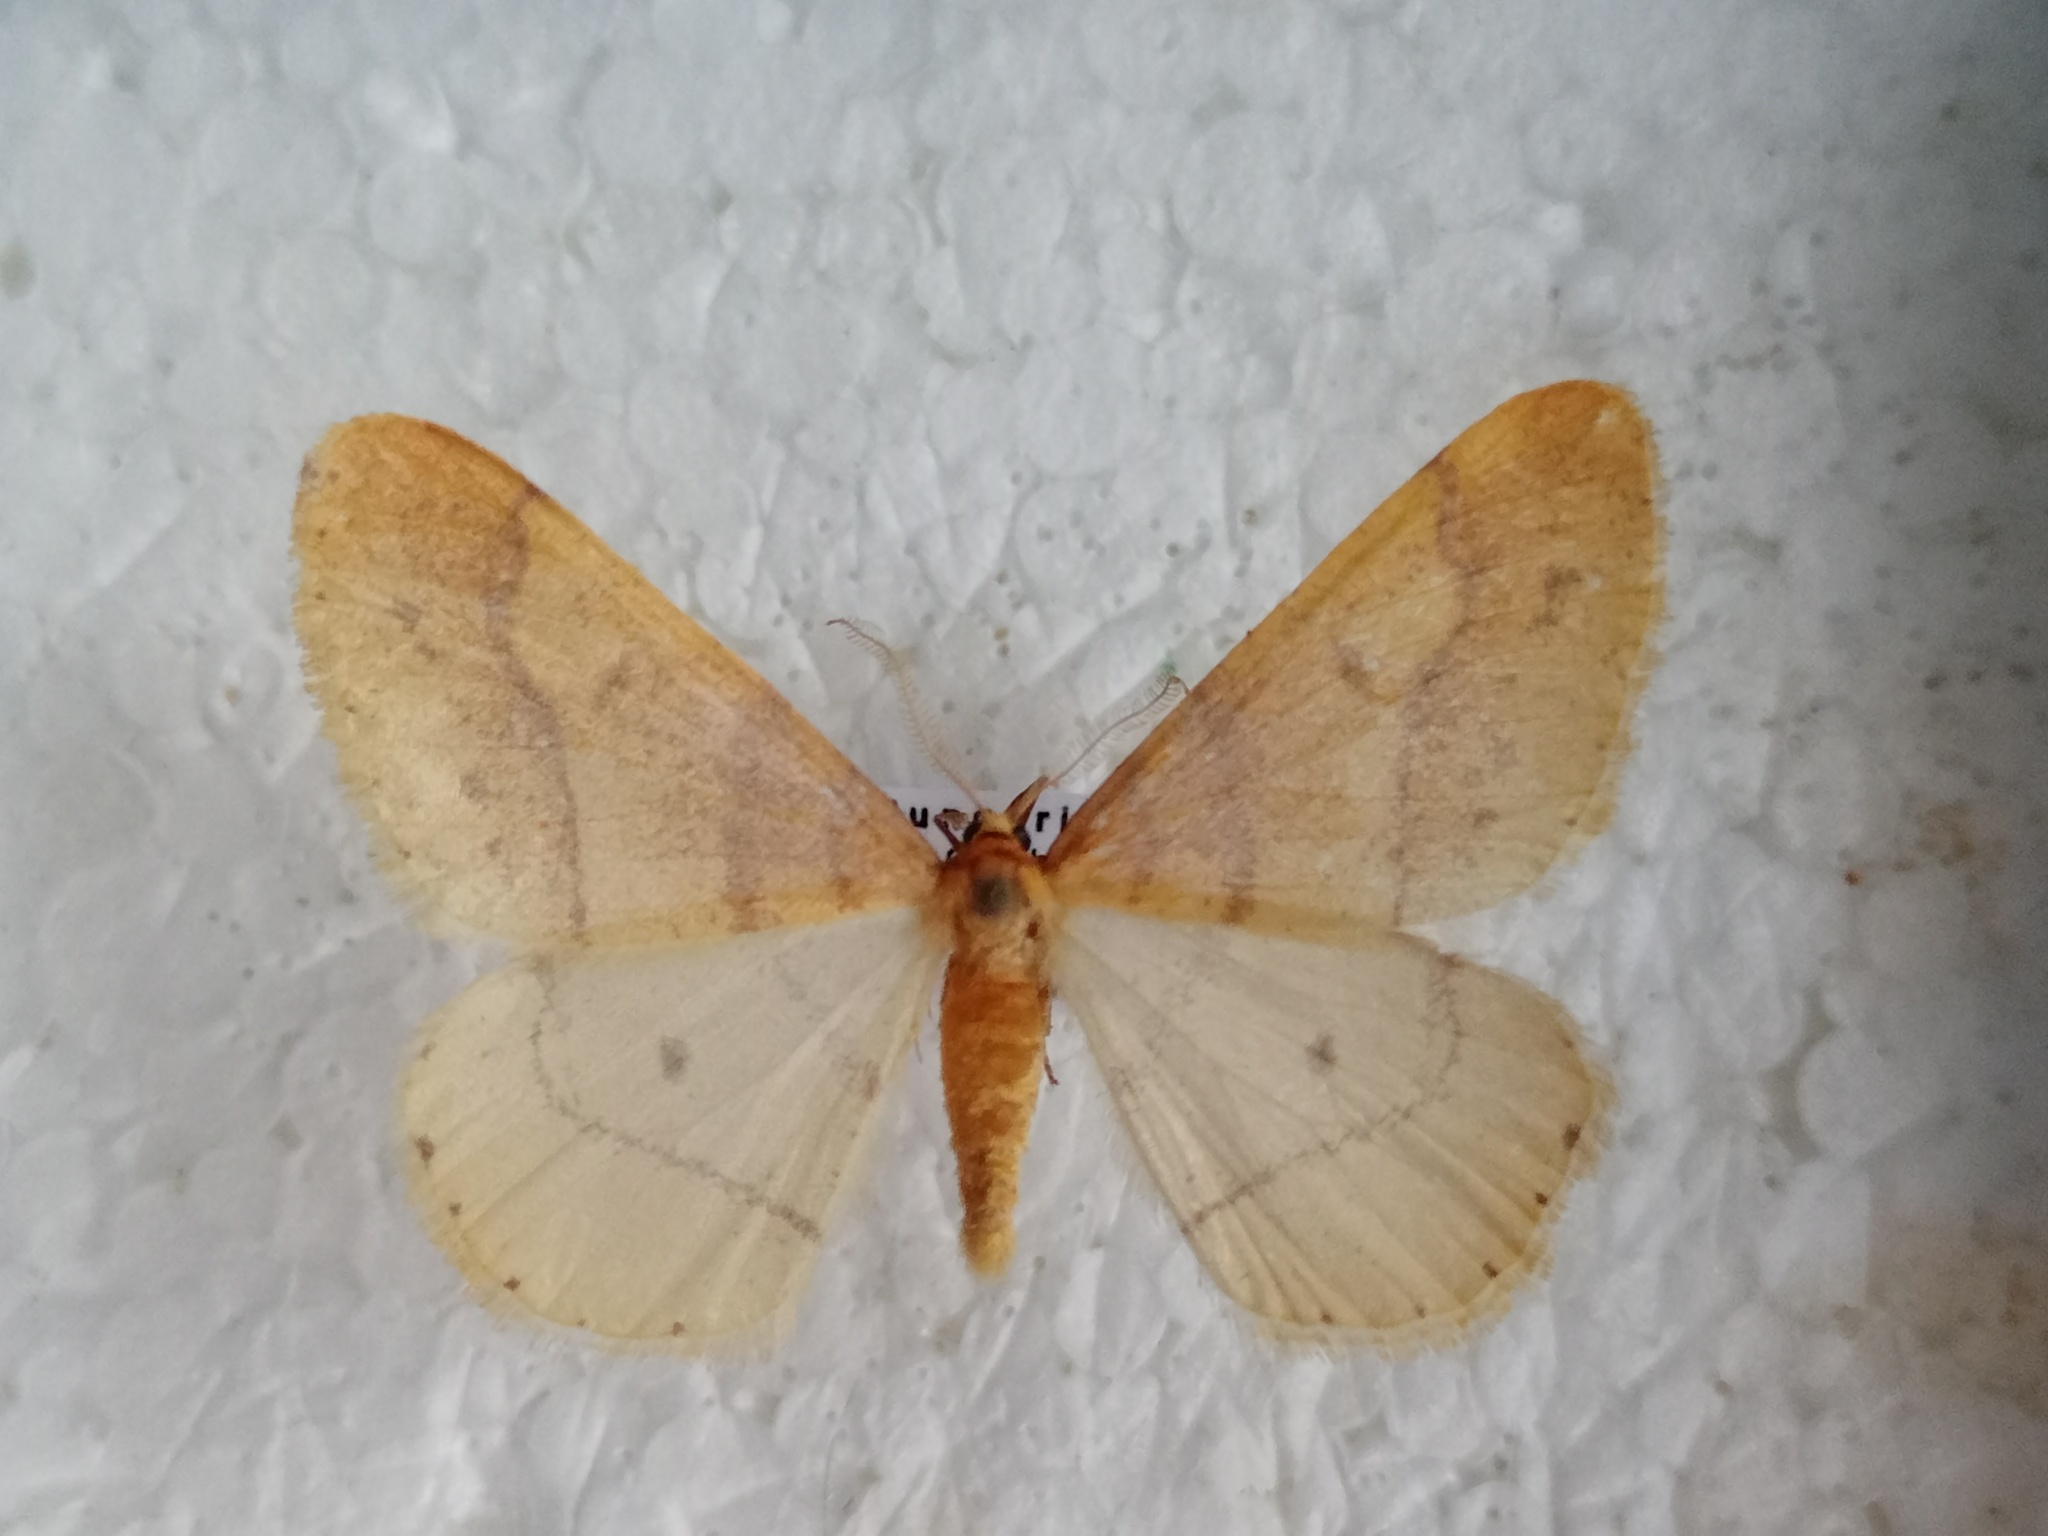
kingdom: Animalia
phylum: Arthropoda
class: Insecta
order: Lepidoptera
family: Geometridae
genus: Agriopis
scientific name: Agriopis aurantiaria
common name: Scarce umber
